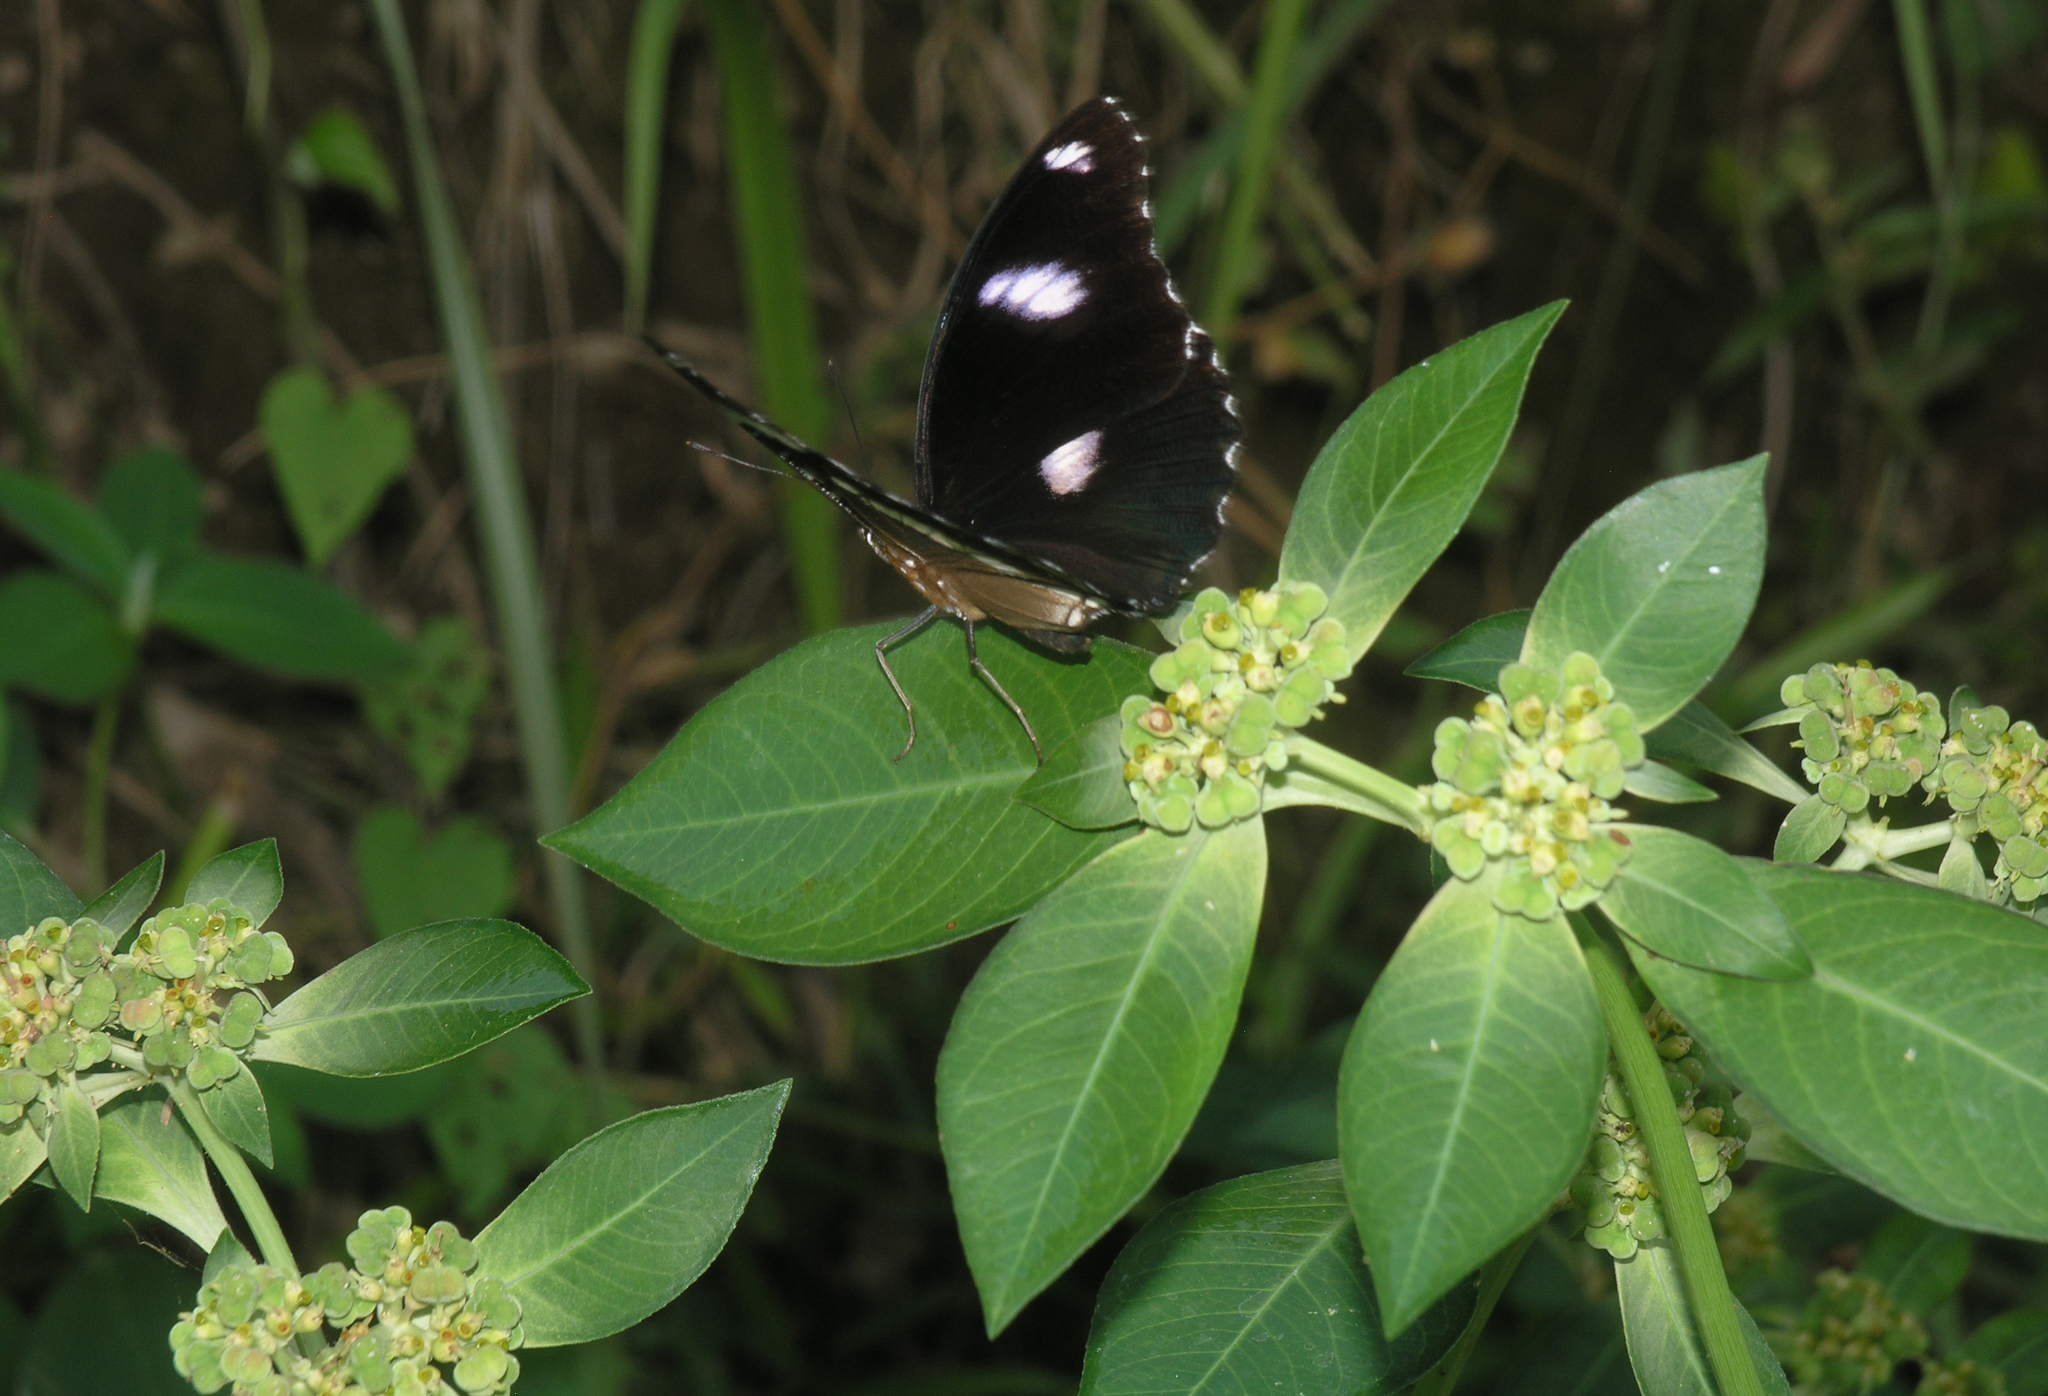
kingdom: Plantae
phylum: Tracheophyta
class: Magnoliopsida
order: Malpighiales
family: Euphorbiaceae
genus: Euphorbia
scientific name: Euphorbia heterophylla
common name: Mexican fireplant
